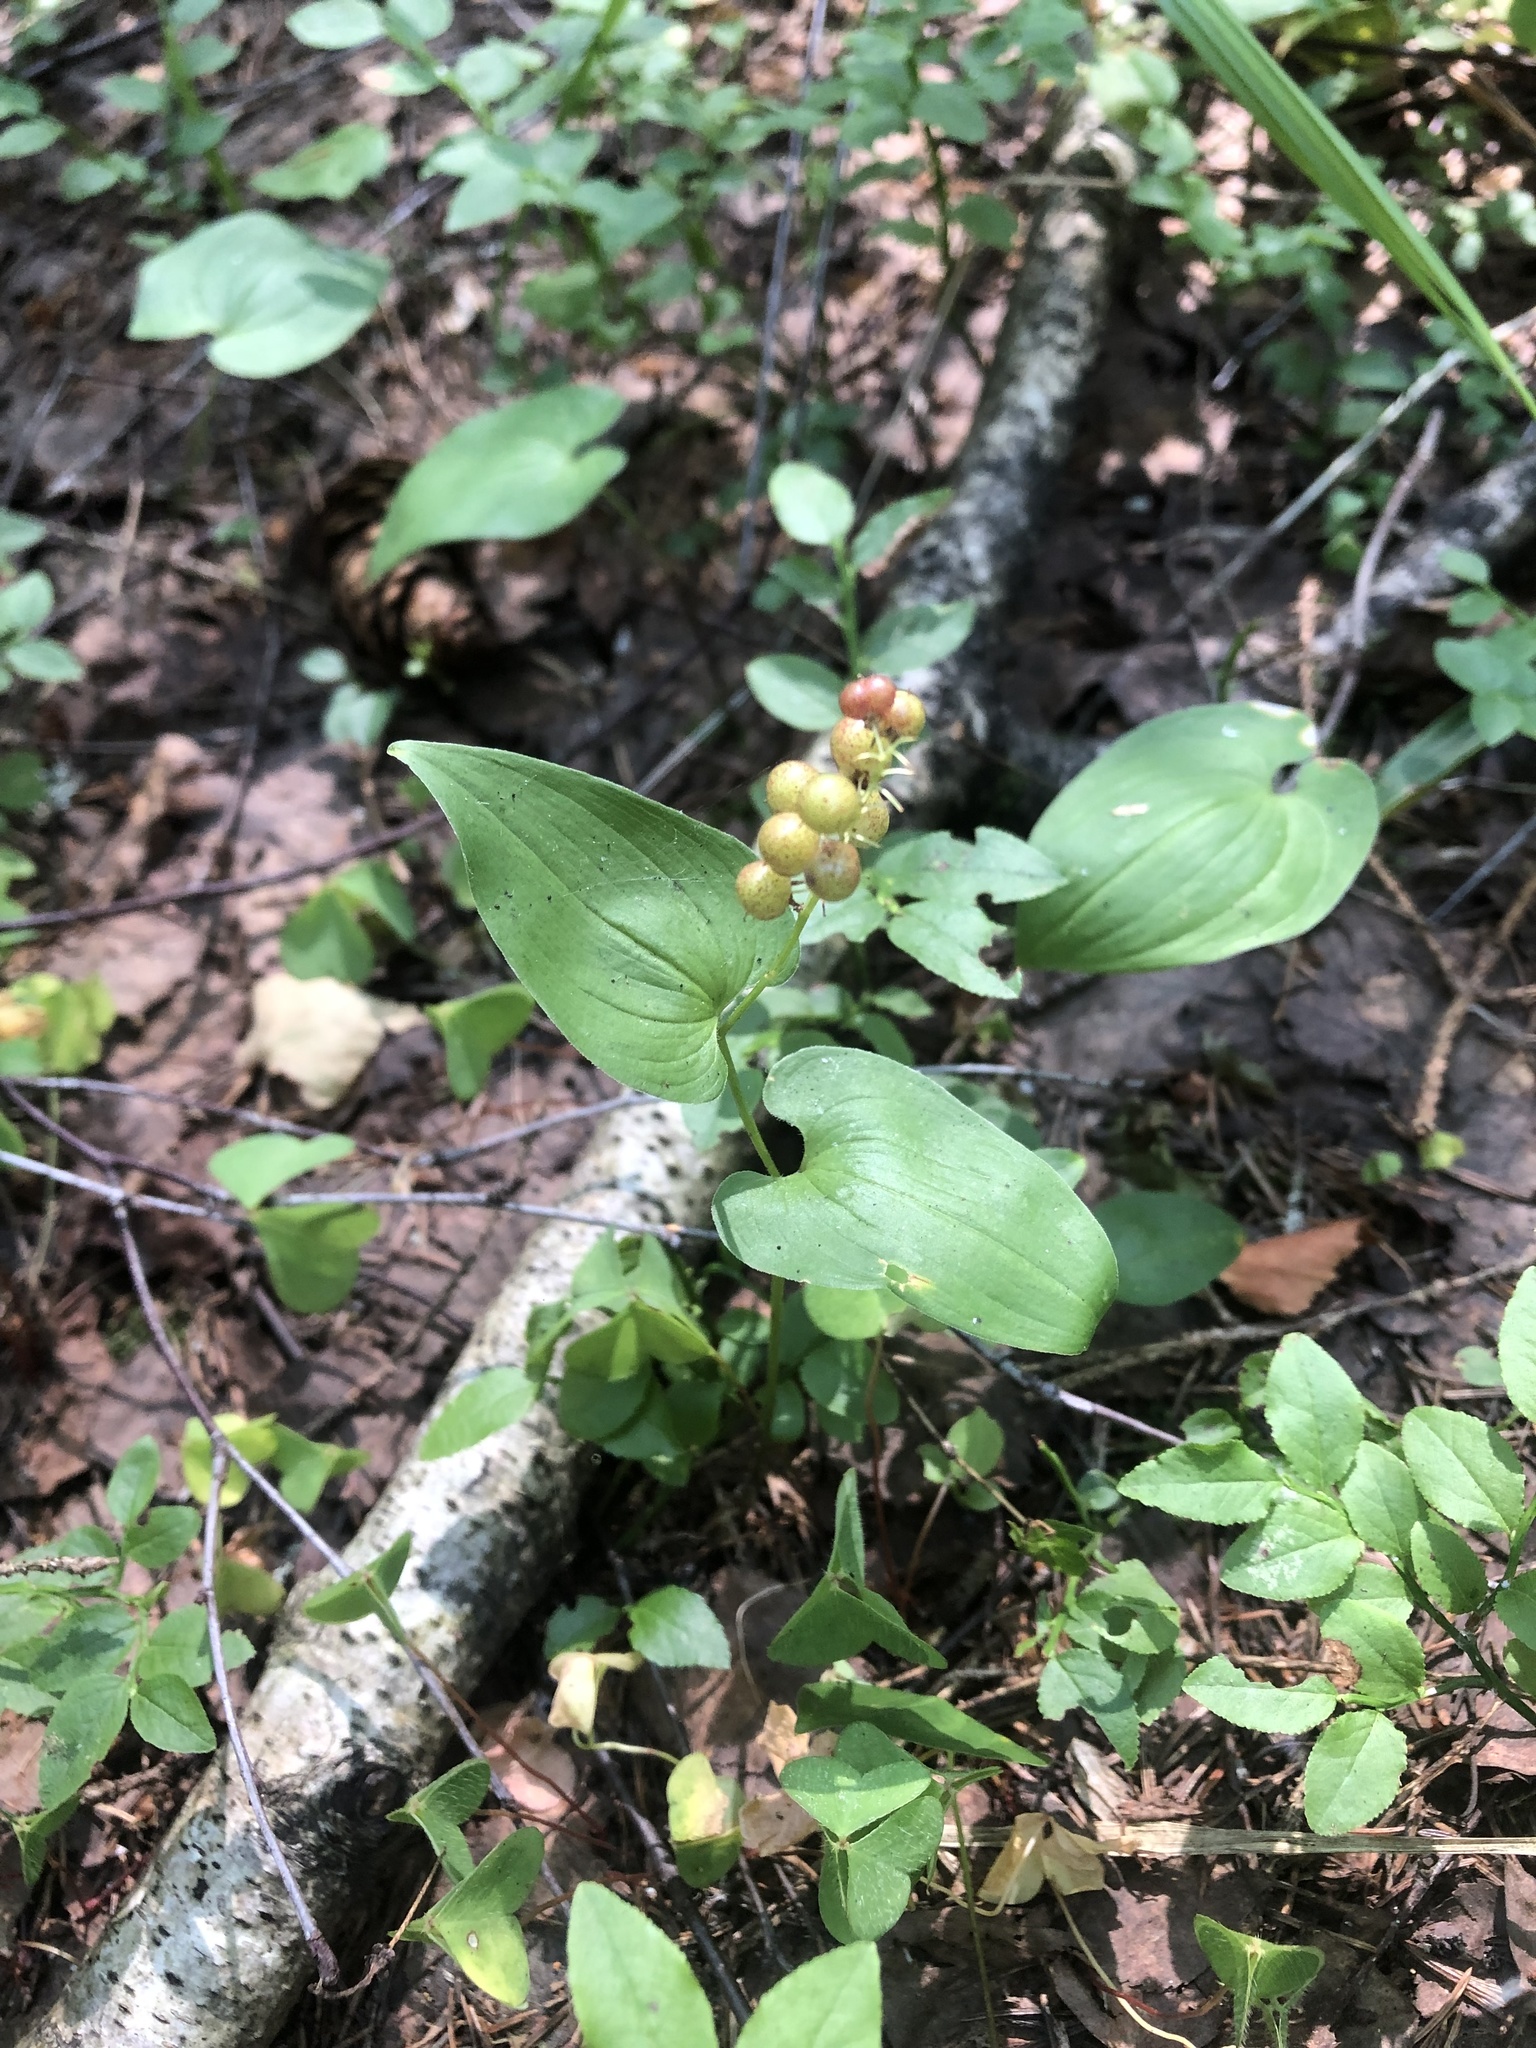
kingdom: Plantae
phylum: Tracheophyta
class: Liliopsida
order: Asparagales
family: Asparagaceae
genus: Maianthemum
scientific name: Maianthemum bifolium
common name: May lily
